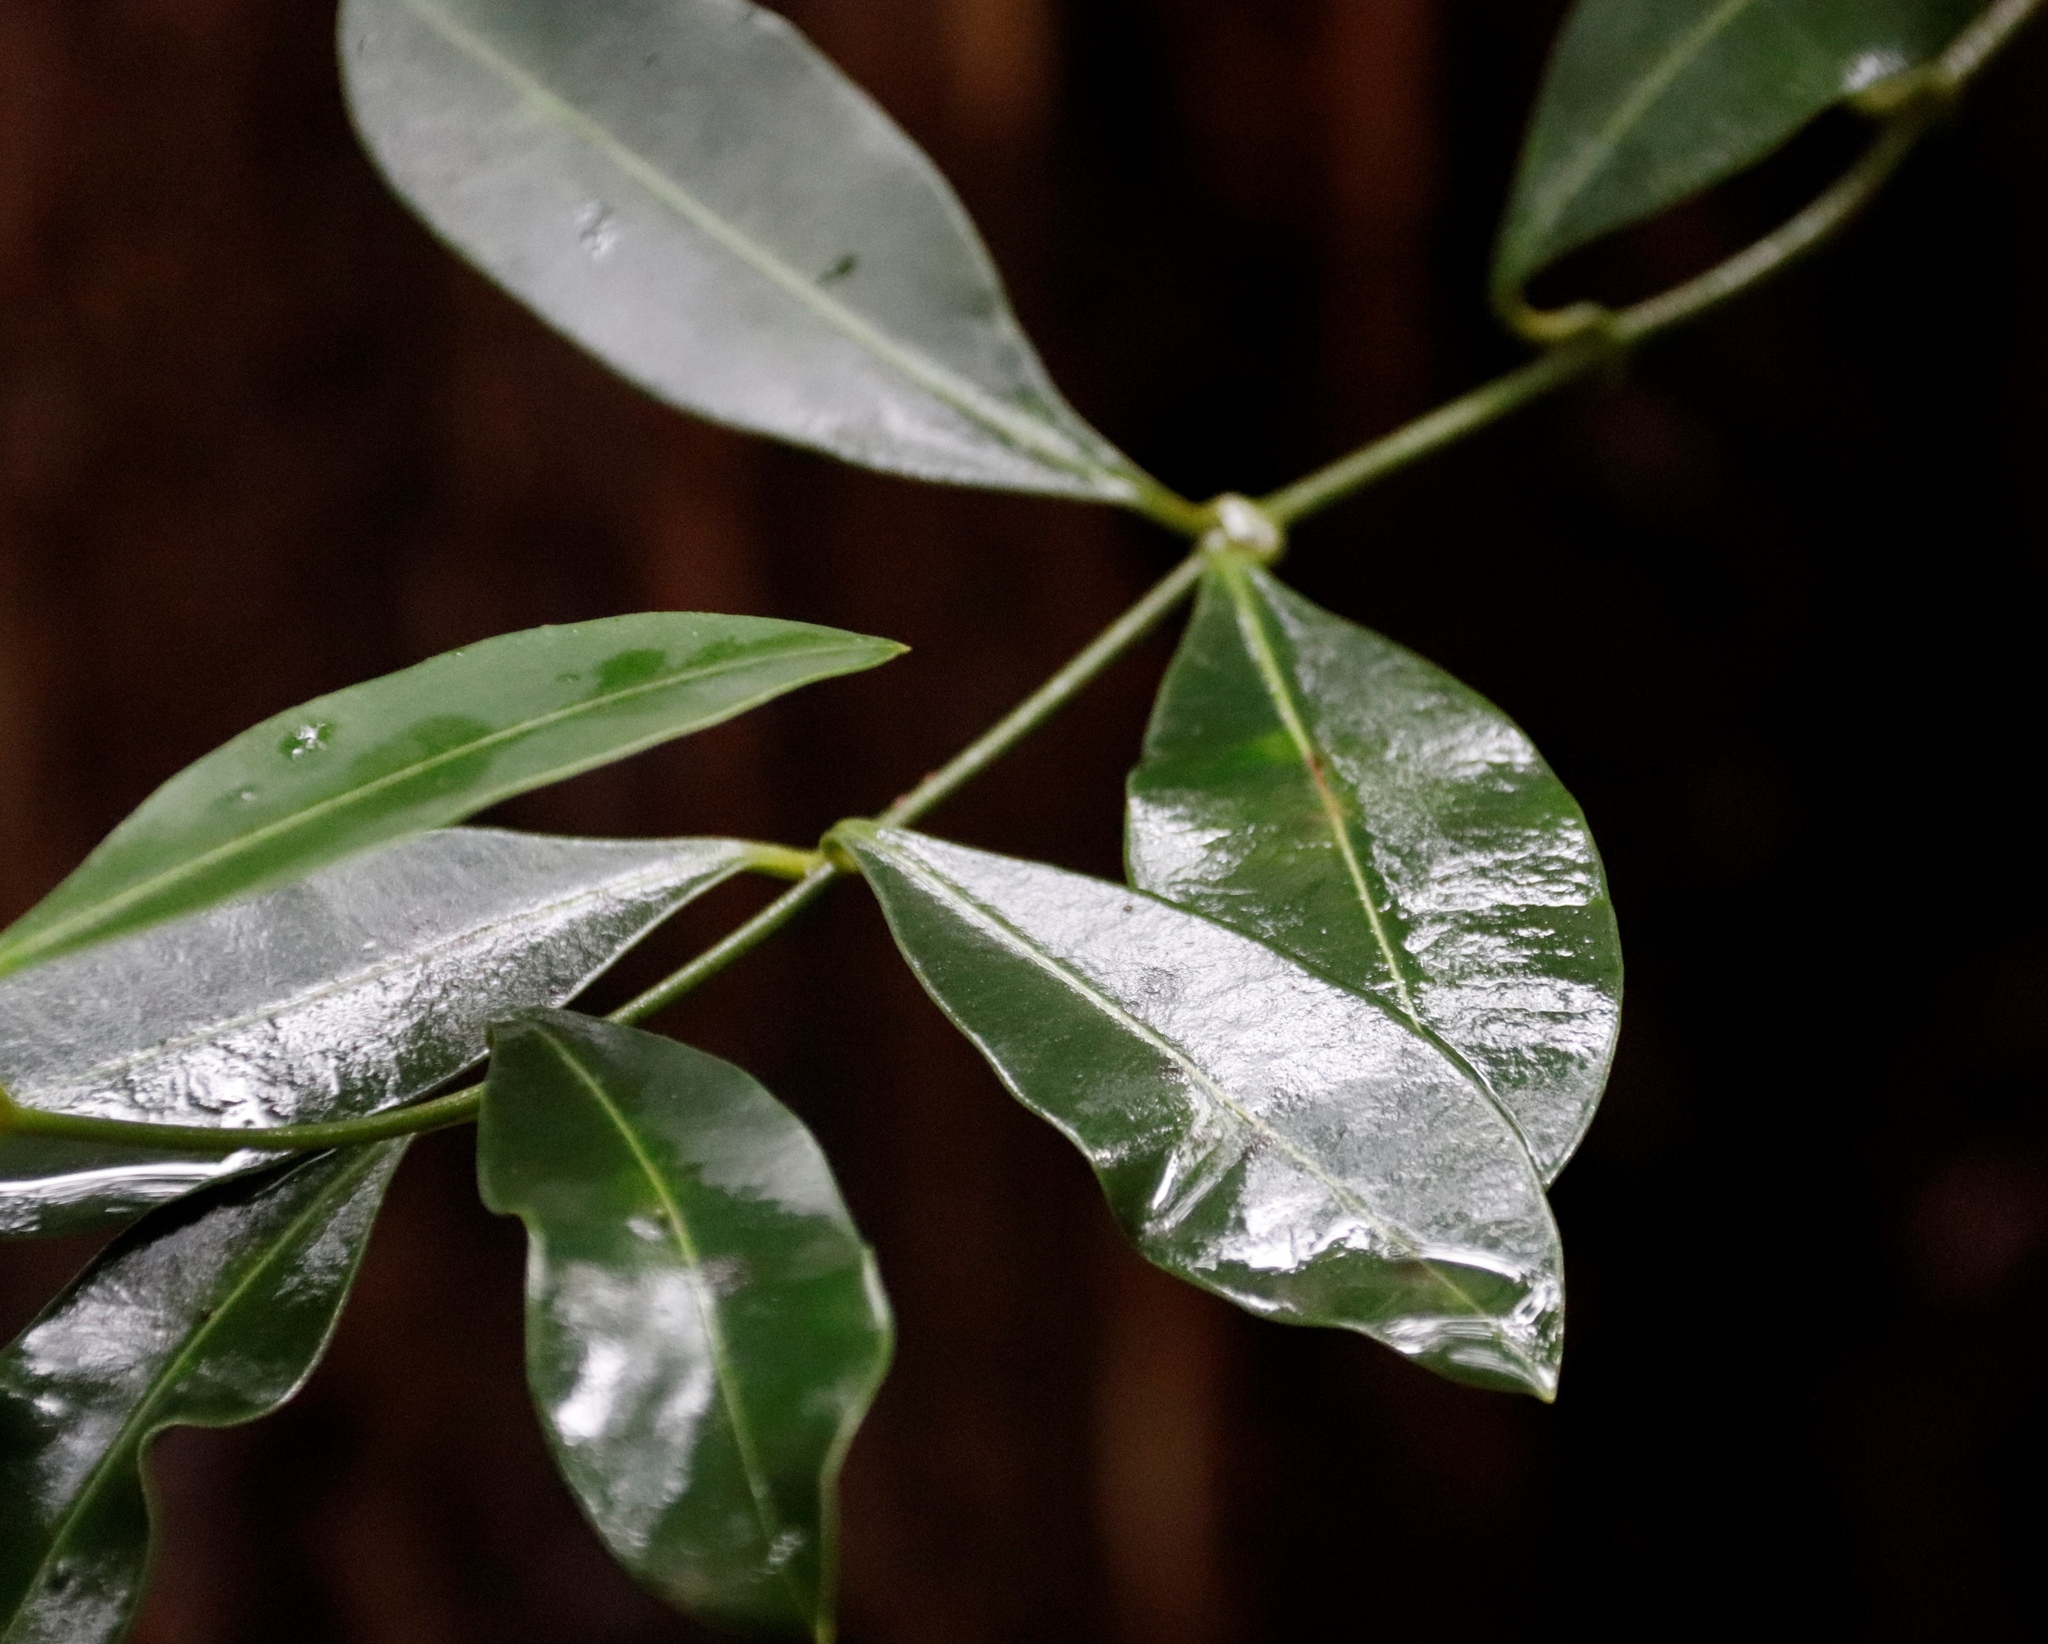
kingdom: Plantae
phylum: Tracheophyta
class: Magnoliopsida
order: Gentianales
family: Apocynaceae
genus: Secamone
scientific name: Secamone alpini
